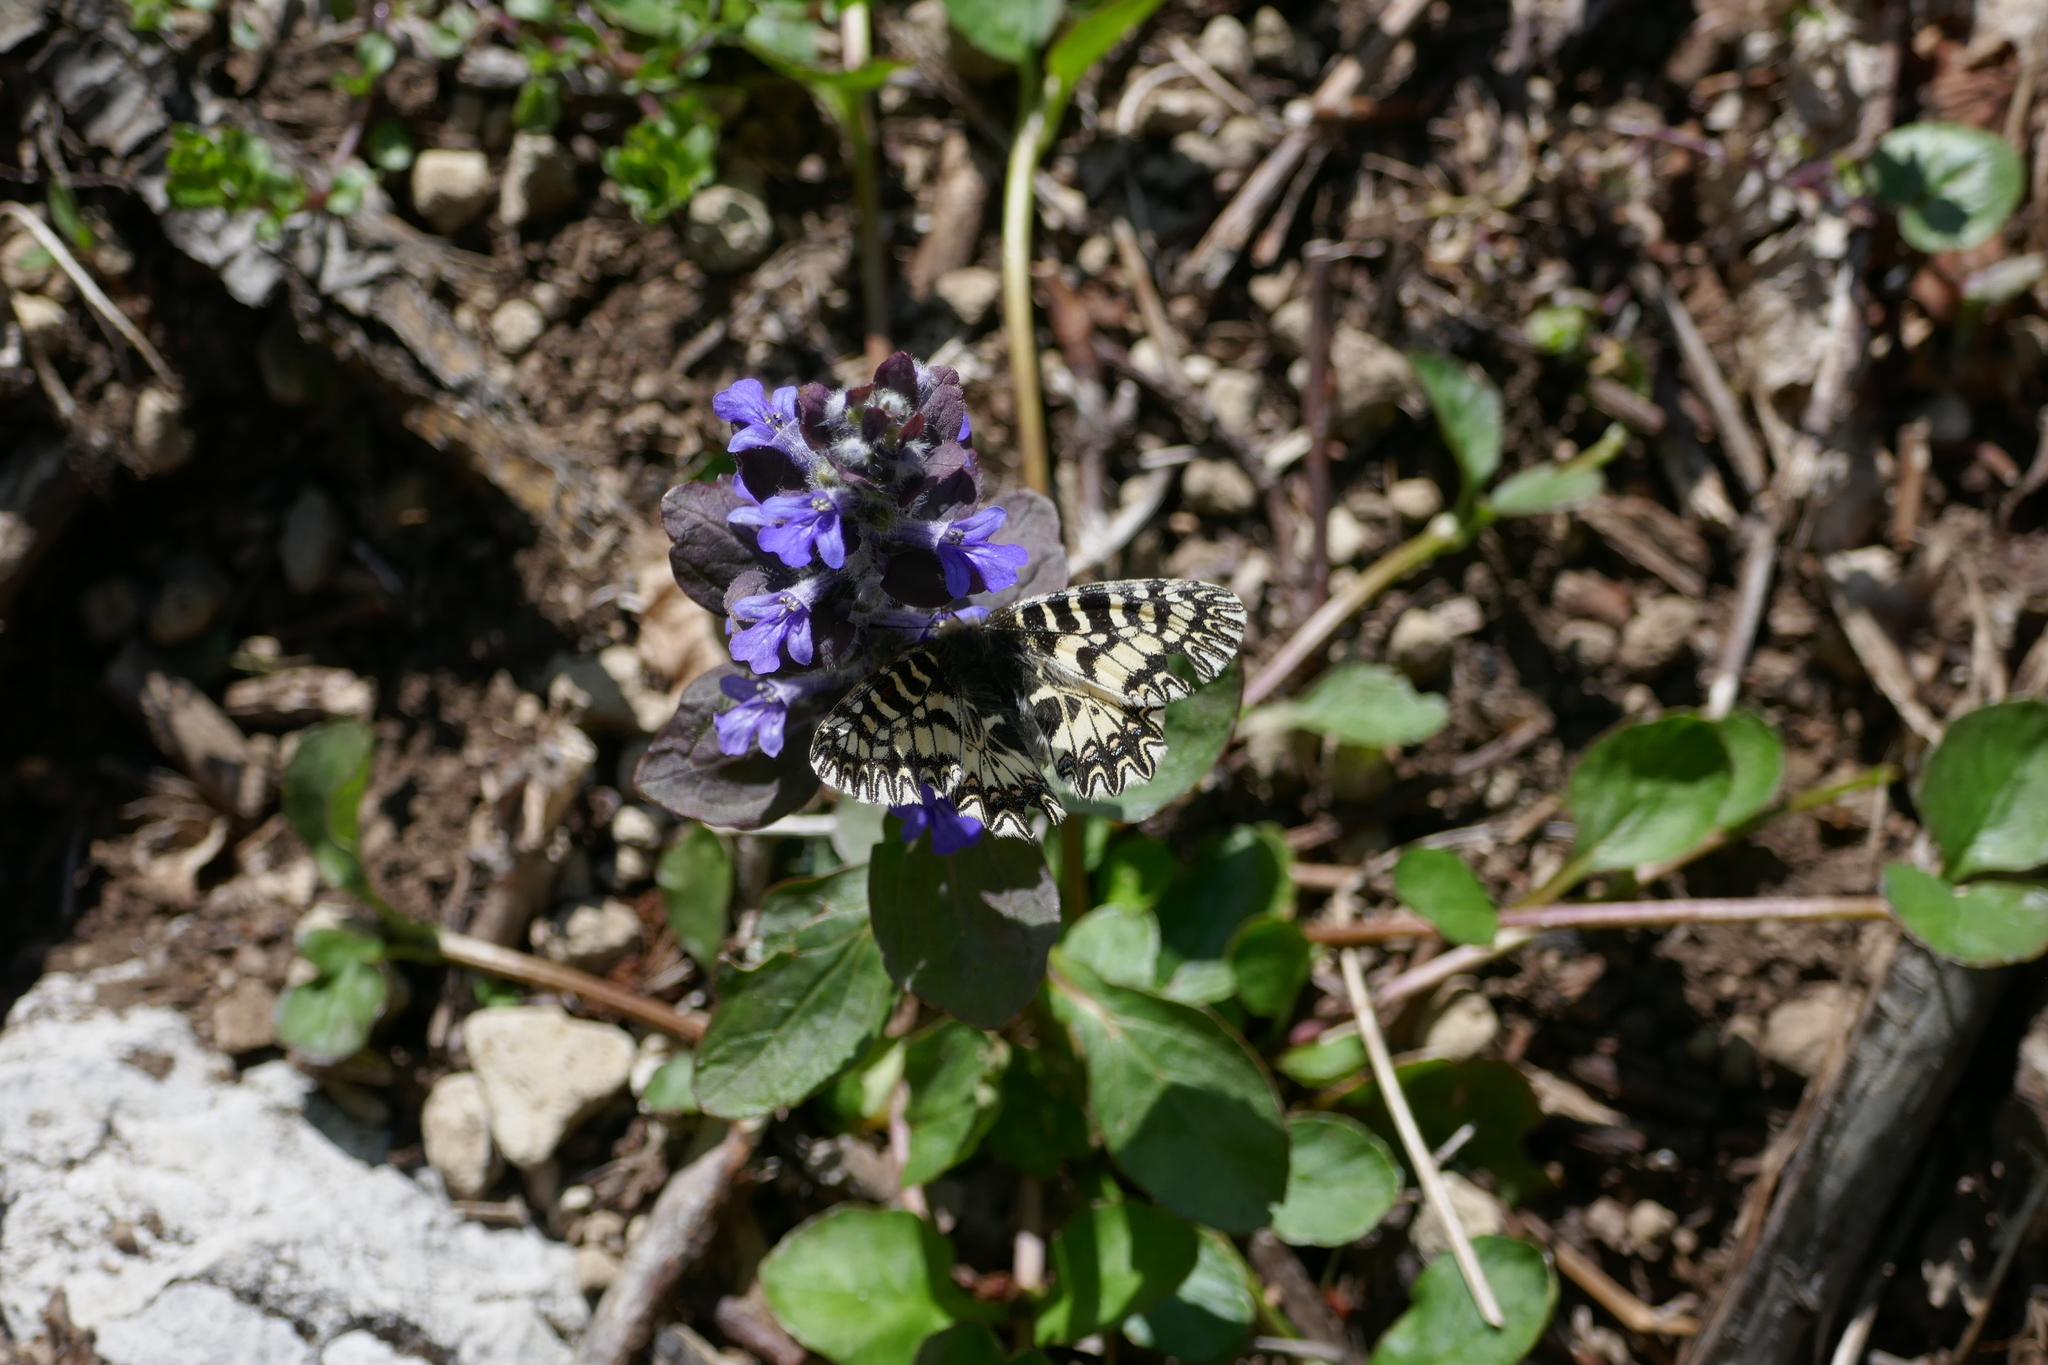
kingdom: Animalia
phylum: Arthropoda
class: Insecta
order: Lepidoptera
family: Papilionidae
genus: Zerynthia
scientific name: Zerynthia cassandra
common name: Italian festoon
